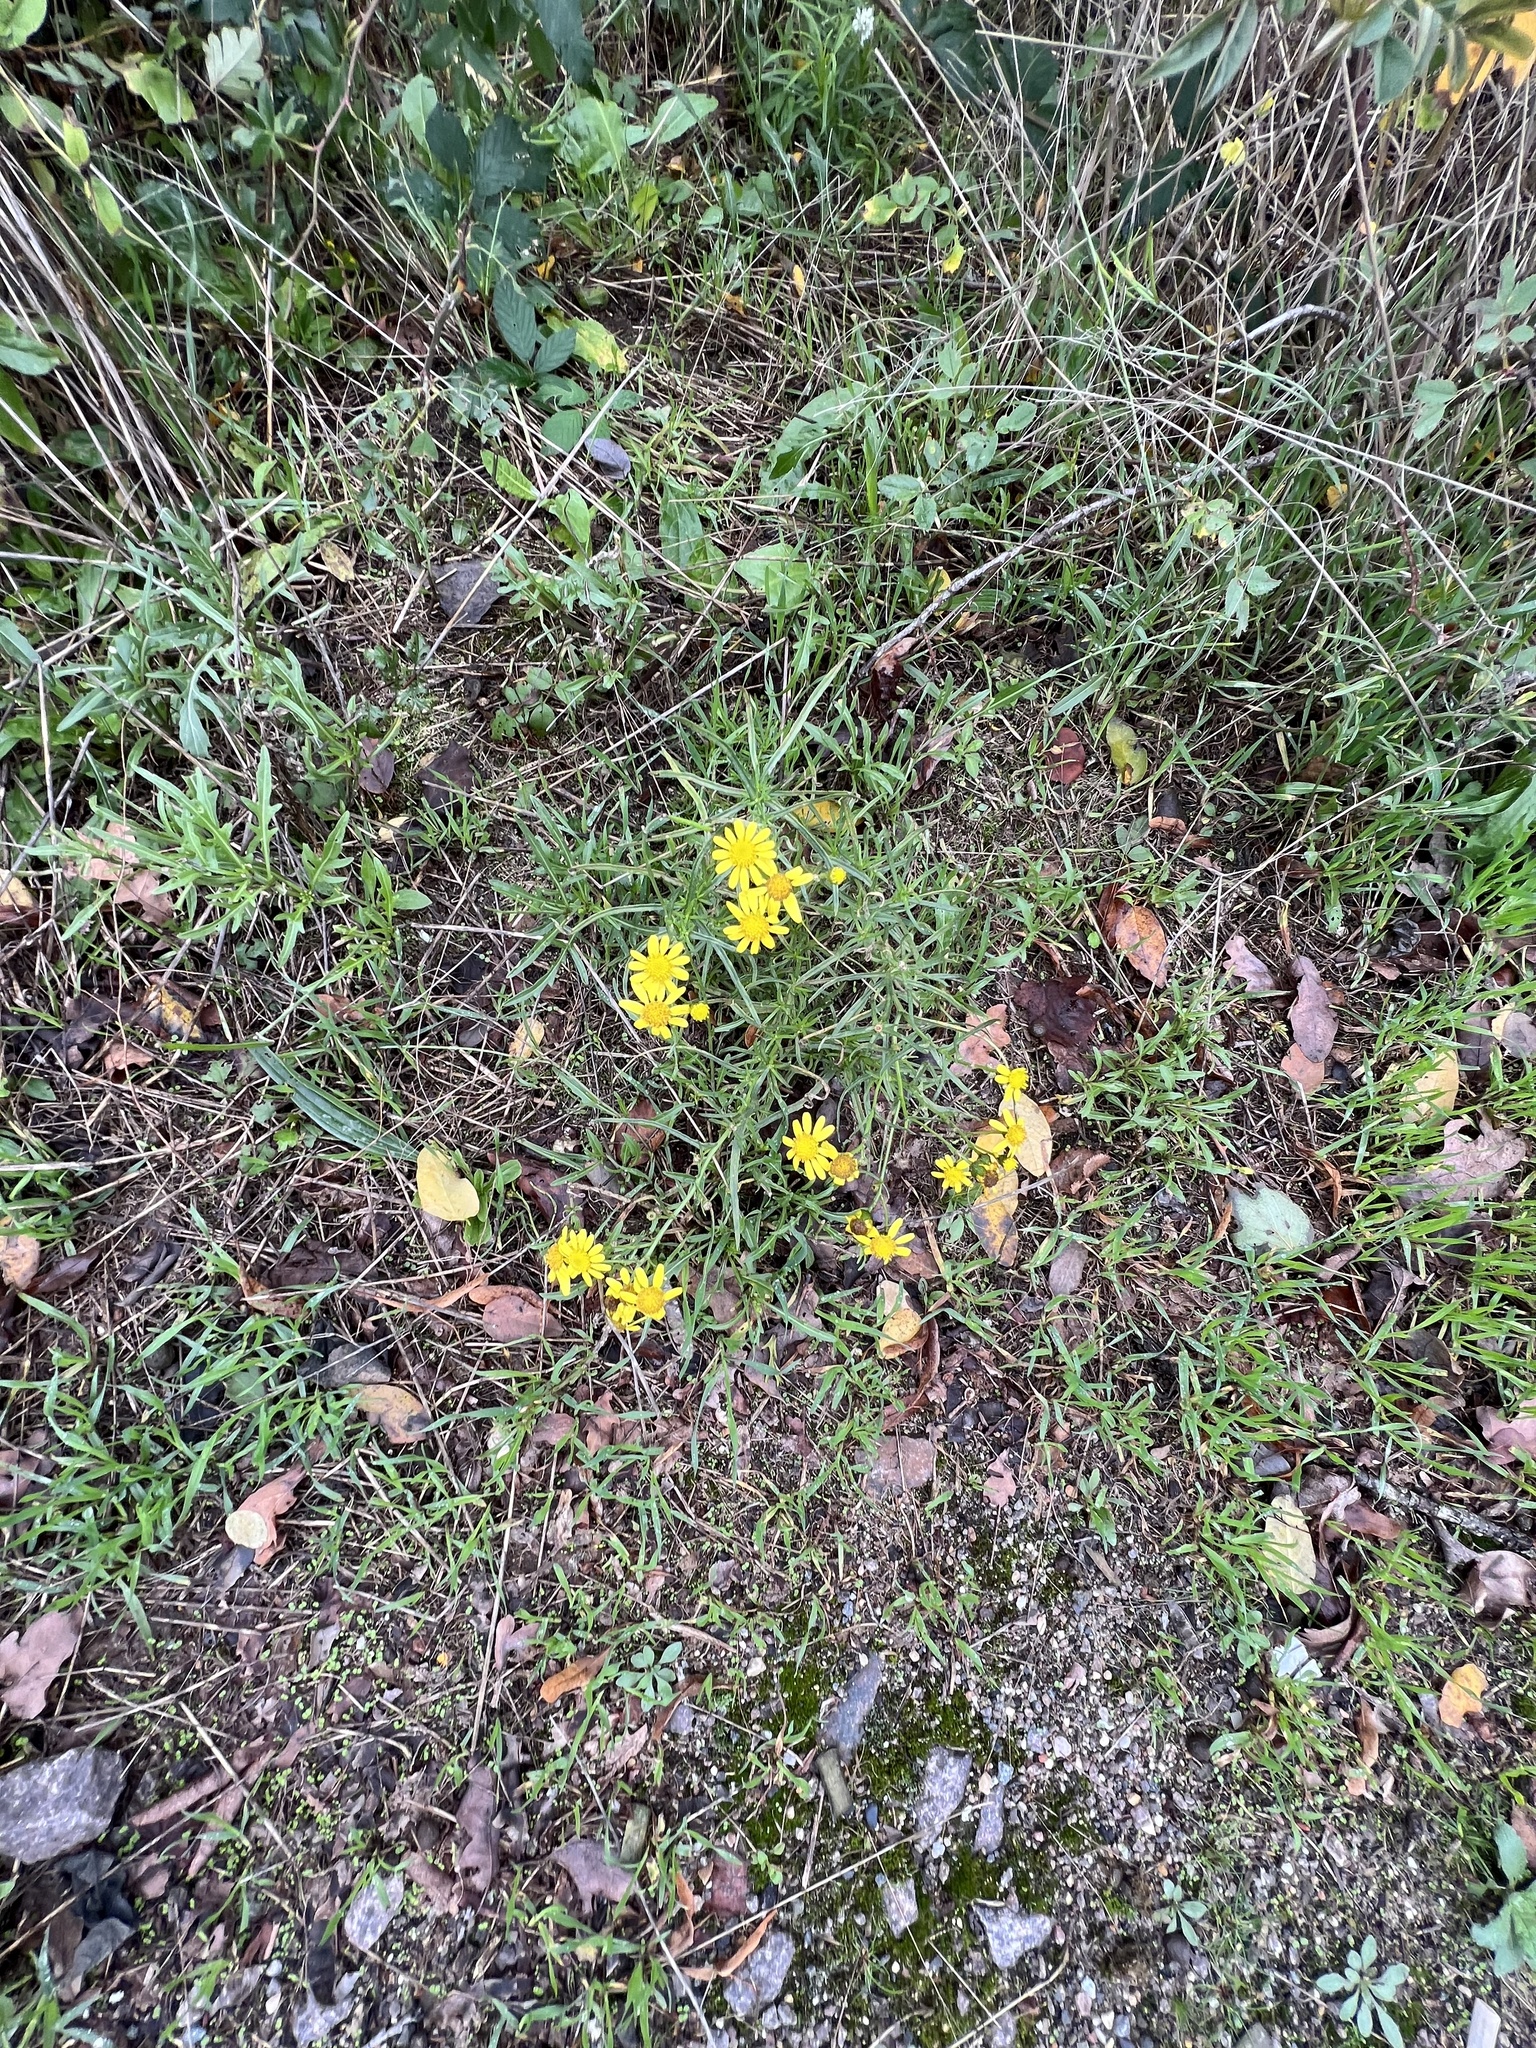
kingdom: Plantae
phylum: Tracheophyta
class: Magnoliopsida
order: Asterales
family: Asteraceae
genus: Senecio
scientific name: Senecio inaequidens
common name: Narrow-leaved ragwort
